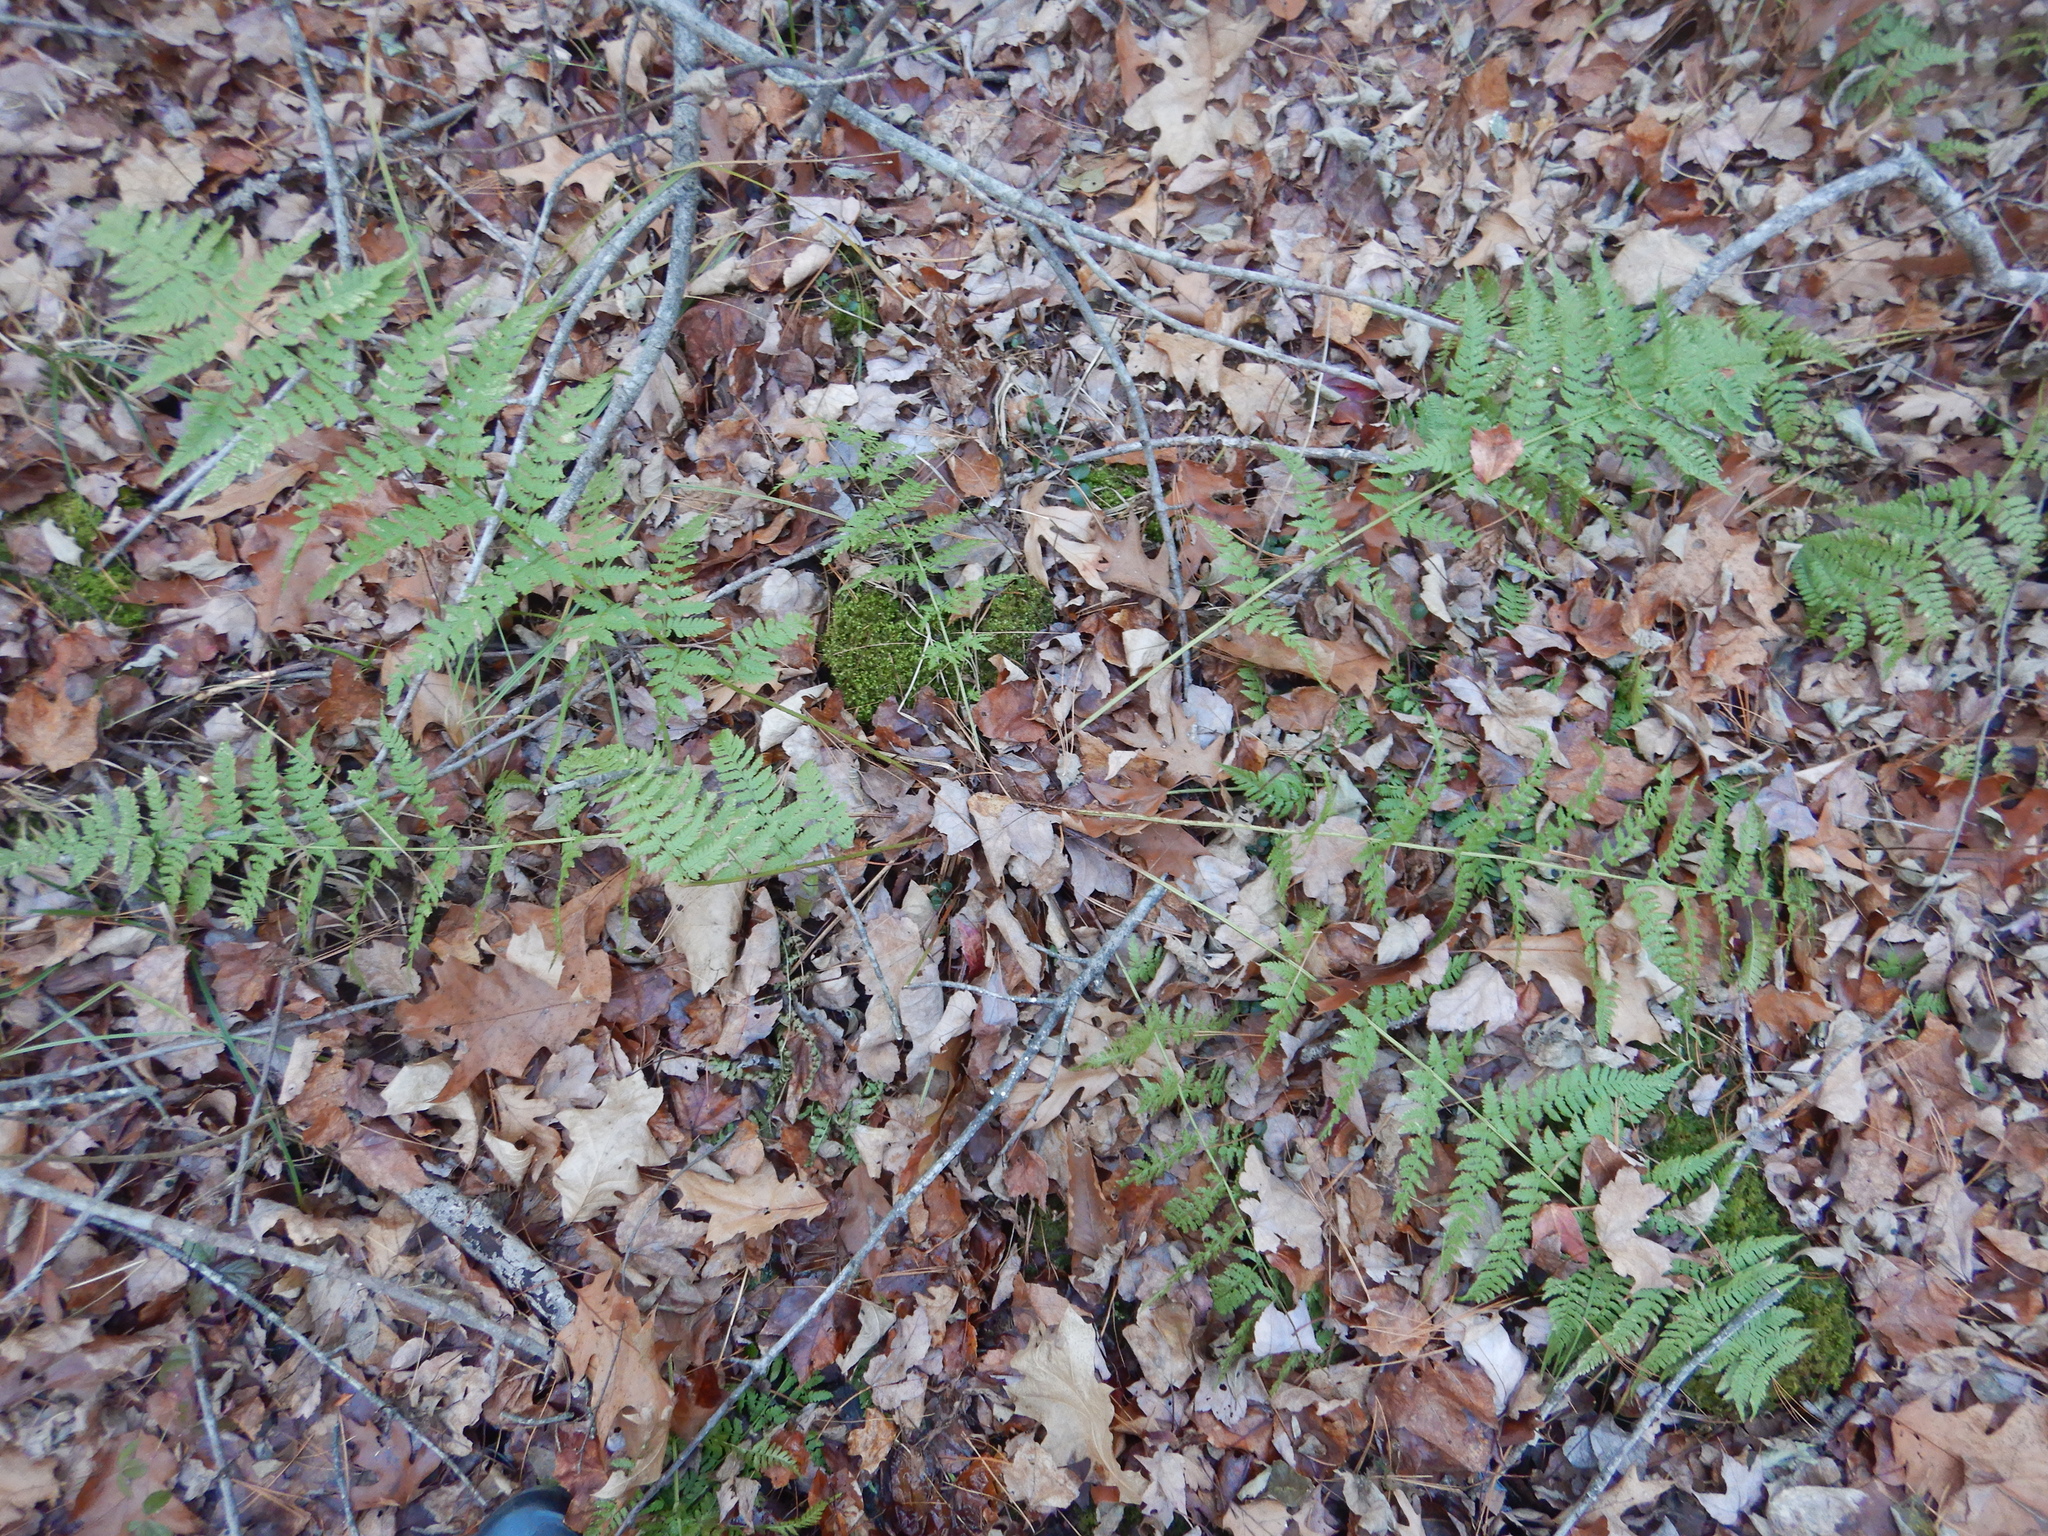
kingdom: Plantae
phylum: Tracheophyta
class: Polypodiopsida
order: Polypodiales
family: Dryopteridaceae
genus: Dryopteris
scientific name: Dryopteris carthusiana
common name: Narrow buckler-fern
